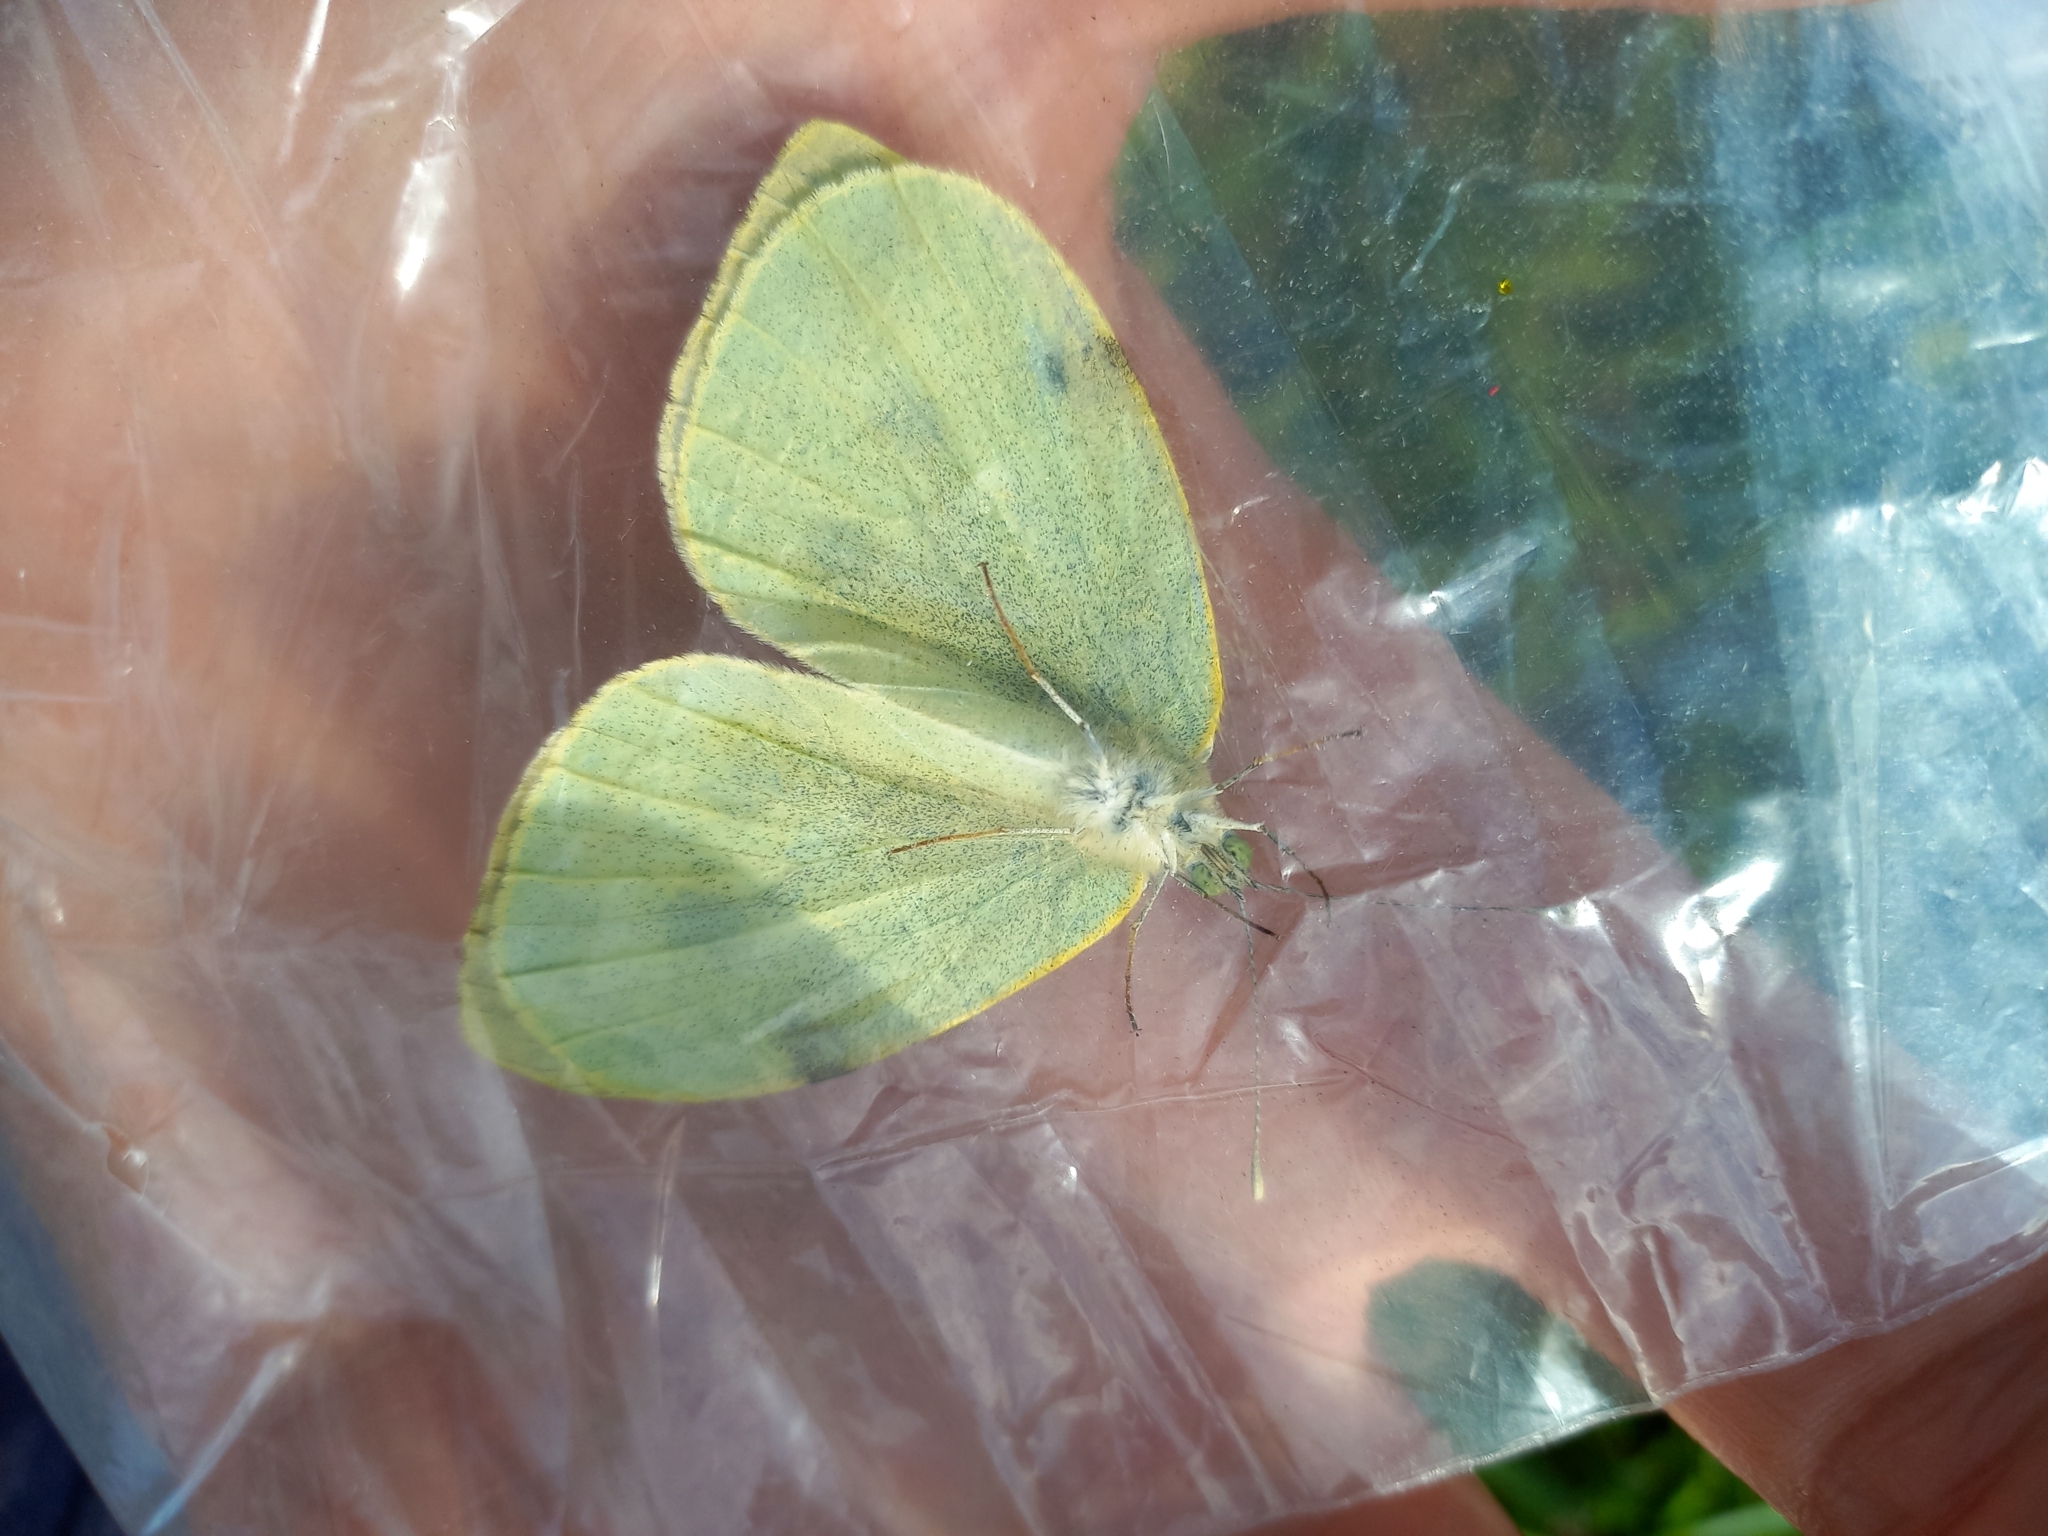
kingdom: Animalia
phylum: Arthropoda
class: Insecta
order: Lepidoptera
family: Pieridae
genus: Pieris
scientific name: Pieris brassicae
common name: Large white
